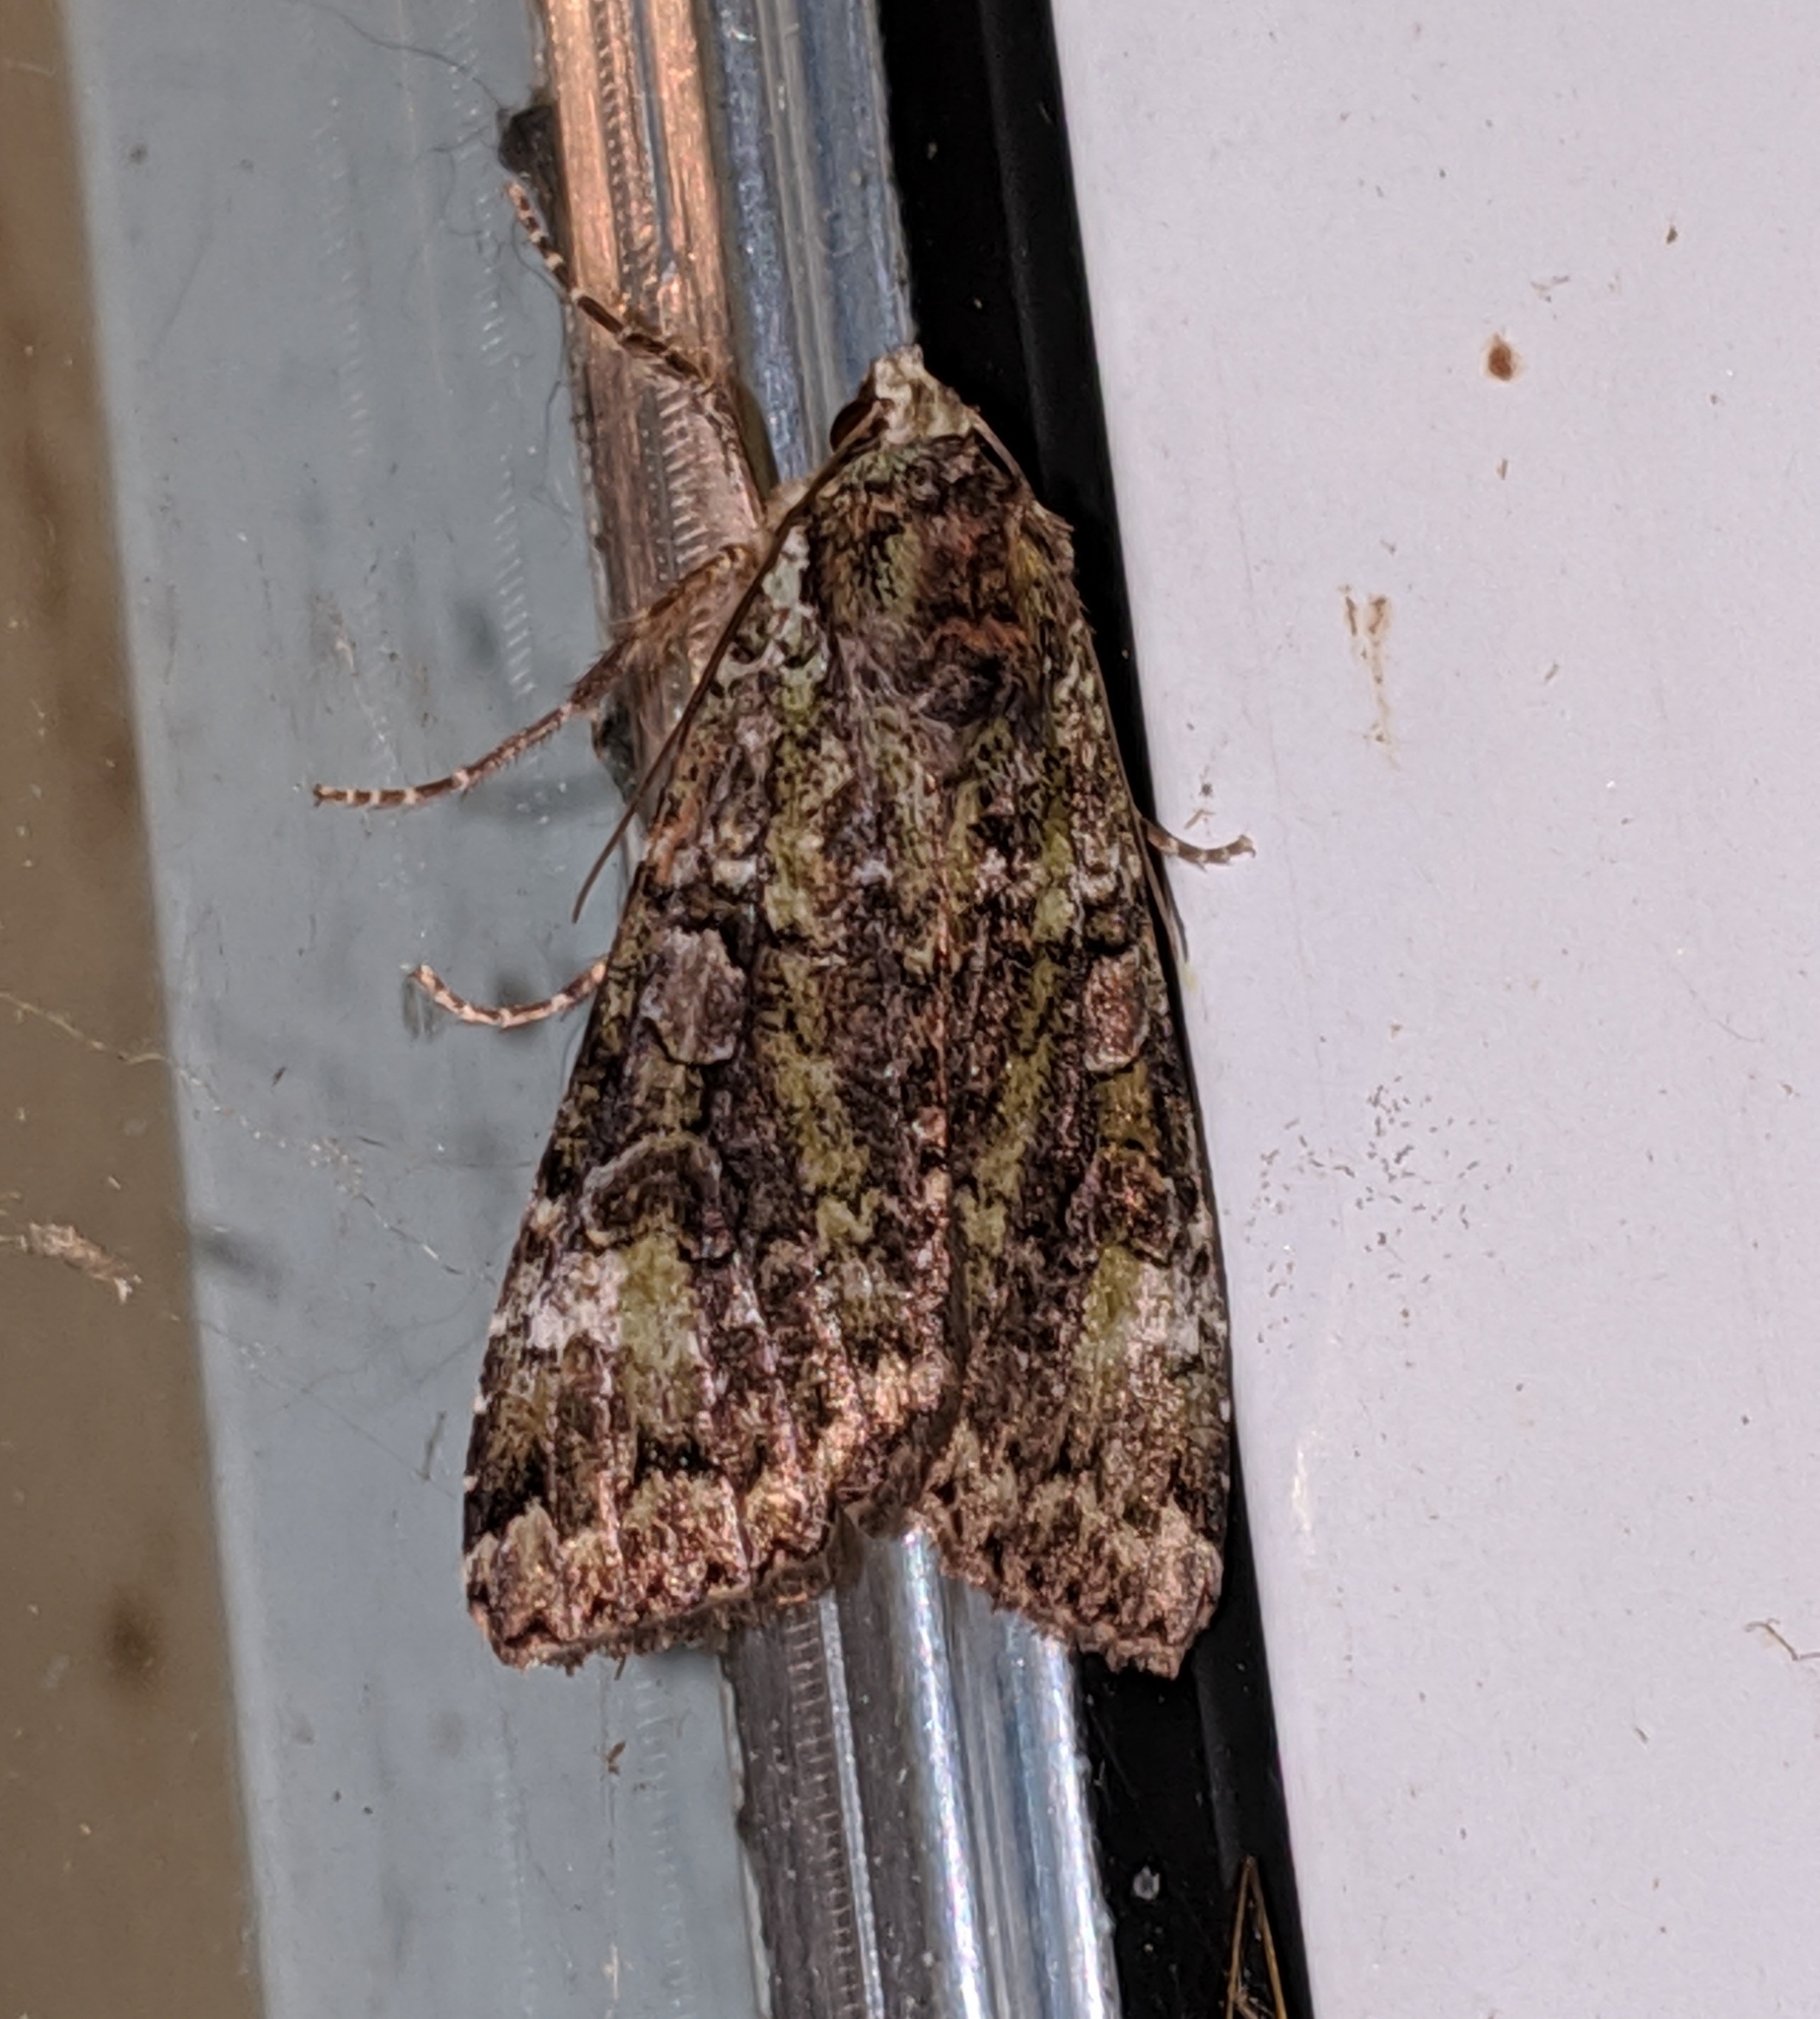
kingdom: Animalia
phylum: Arthropoda
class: Insecta
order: Lepidoptera
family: Noctuidae
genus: Anaplectoides
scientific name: Anaplectoides prasina
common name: Green arches
